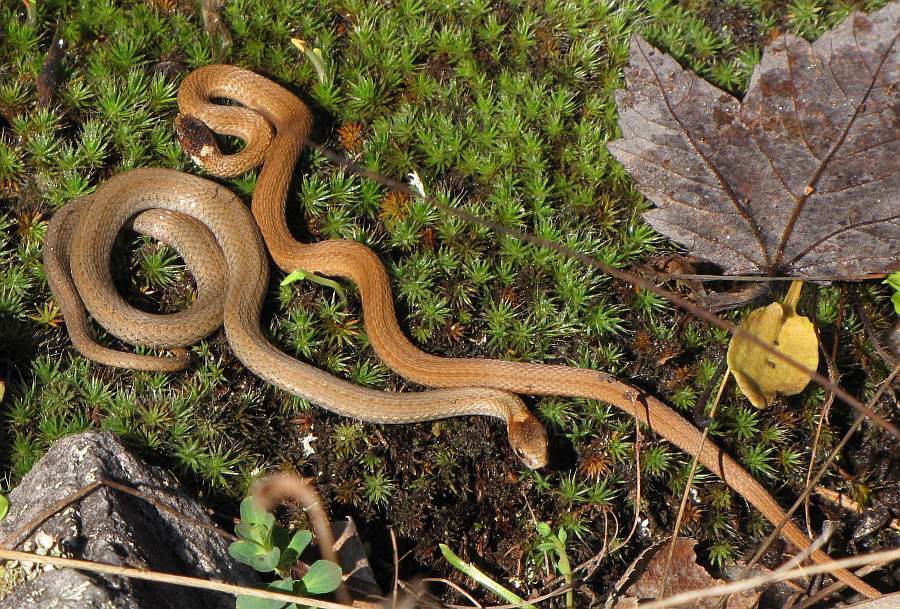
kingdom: Animalia
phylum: Chordata
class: Squamata
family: Colubridae
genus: Storeria
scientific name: Storeria occipitomaculata
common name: Redbelly snake
